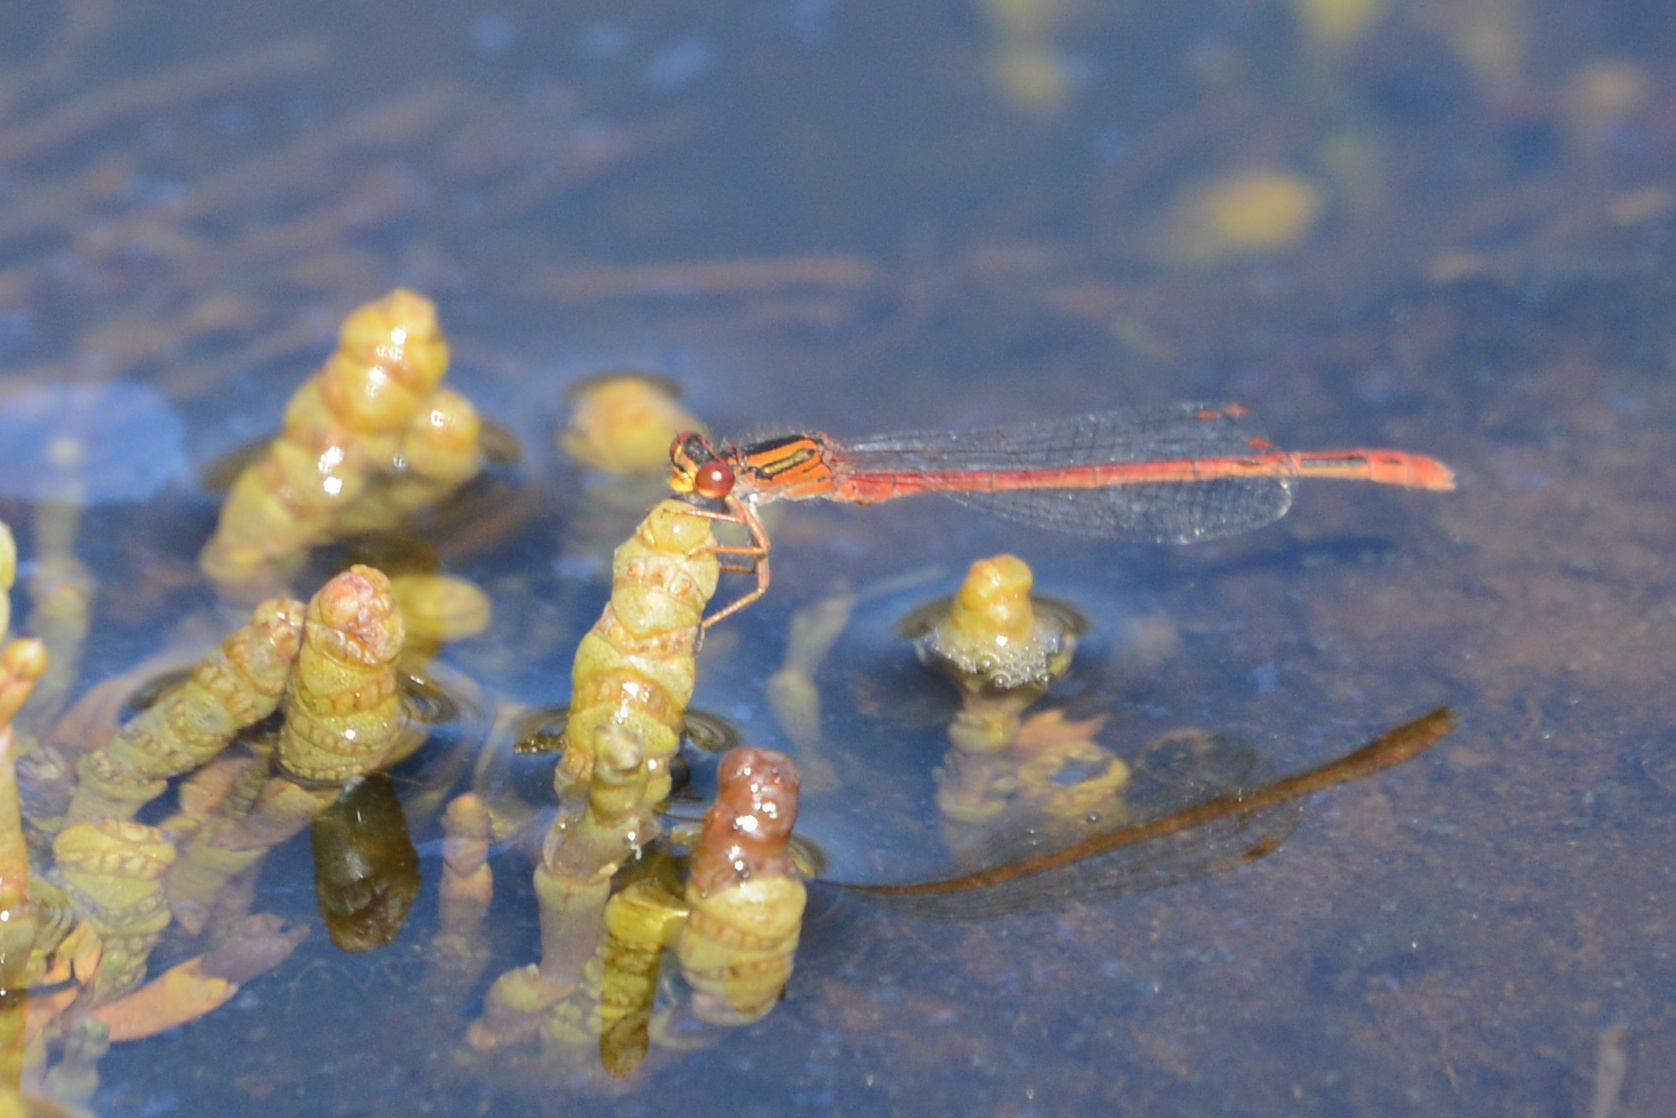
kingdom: Animalia
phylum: Arthropoda
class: Insecta
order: Odonata
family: Coenagrionidae
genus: Xanthocnemis
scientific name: Xanthocnemis zealandica
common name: Common redcoat damselfly
